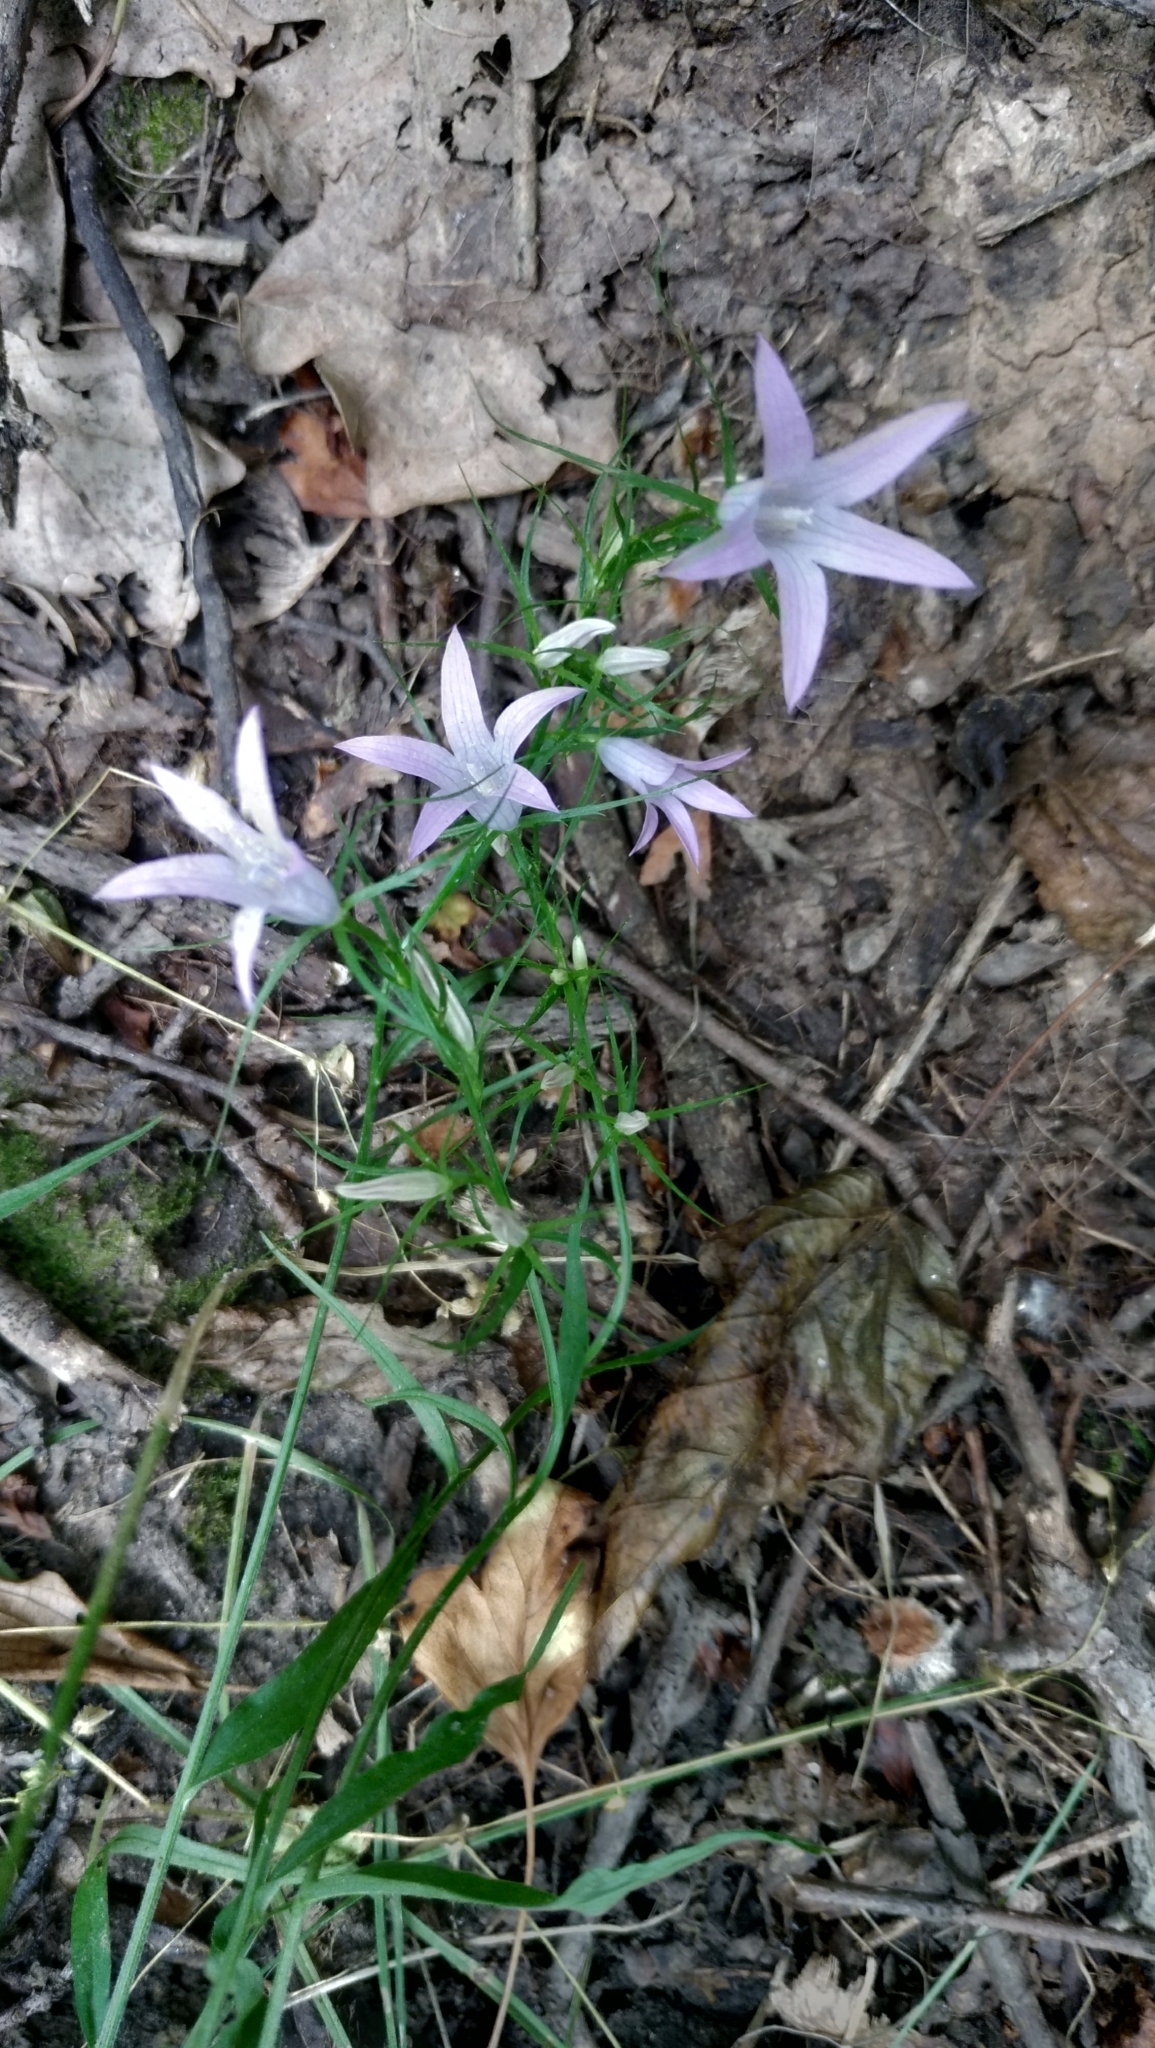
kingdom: Plantae
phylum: Tracheophyta
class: Magnoliopsida
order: Asterales
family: Campanulaceae
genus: Campanula
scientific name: Campanula rapunculus
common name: Rampion bellflower
